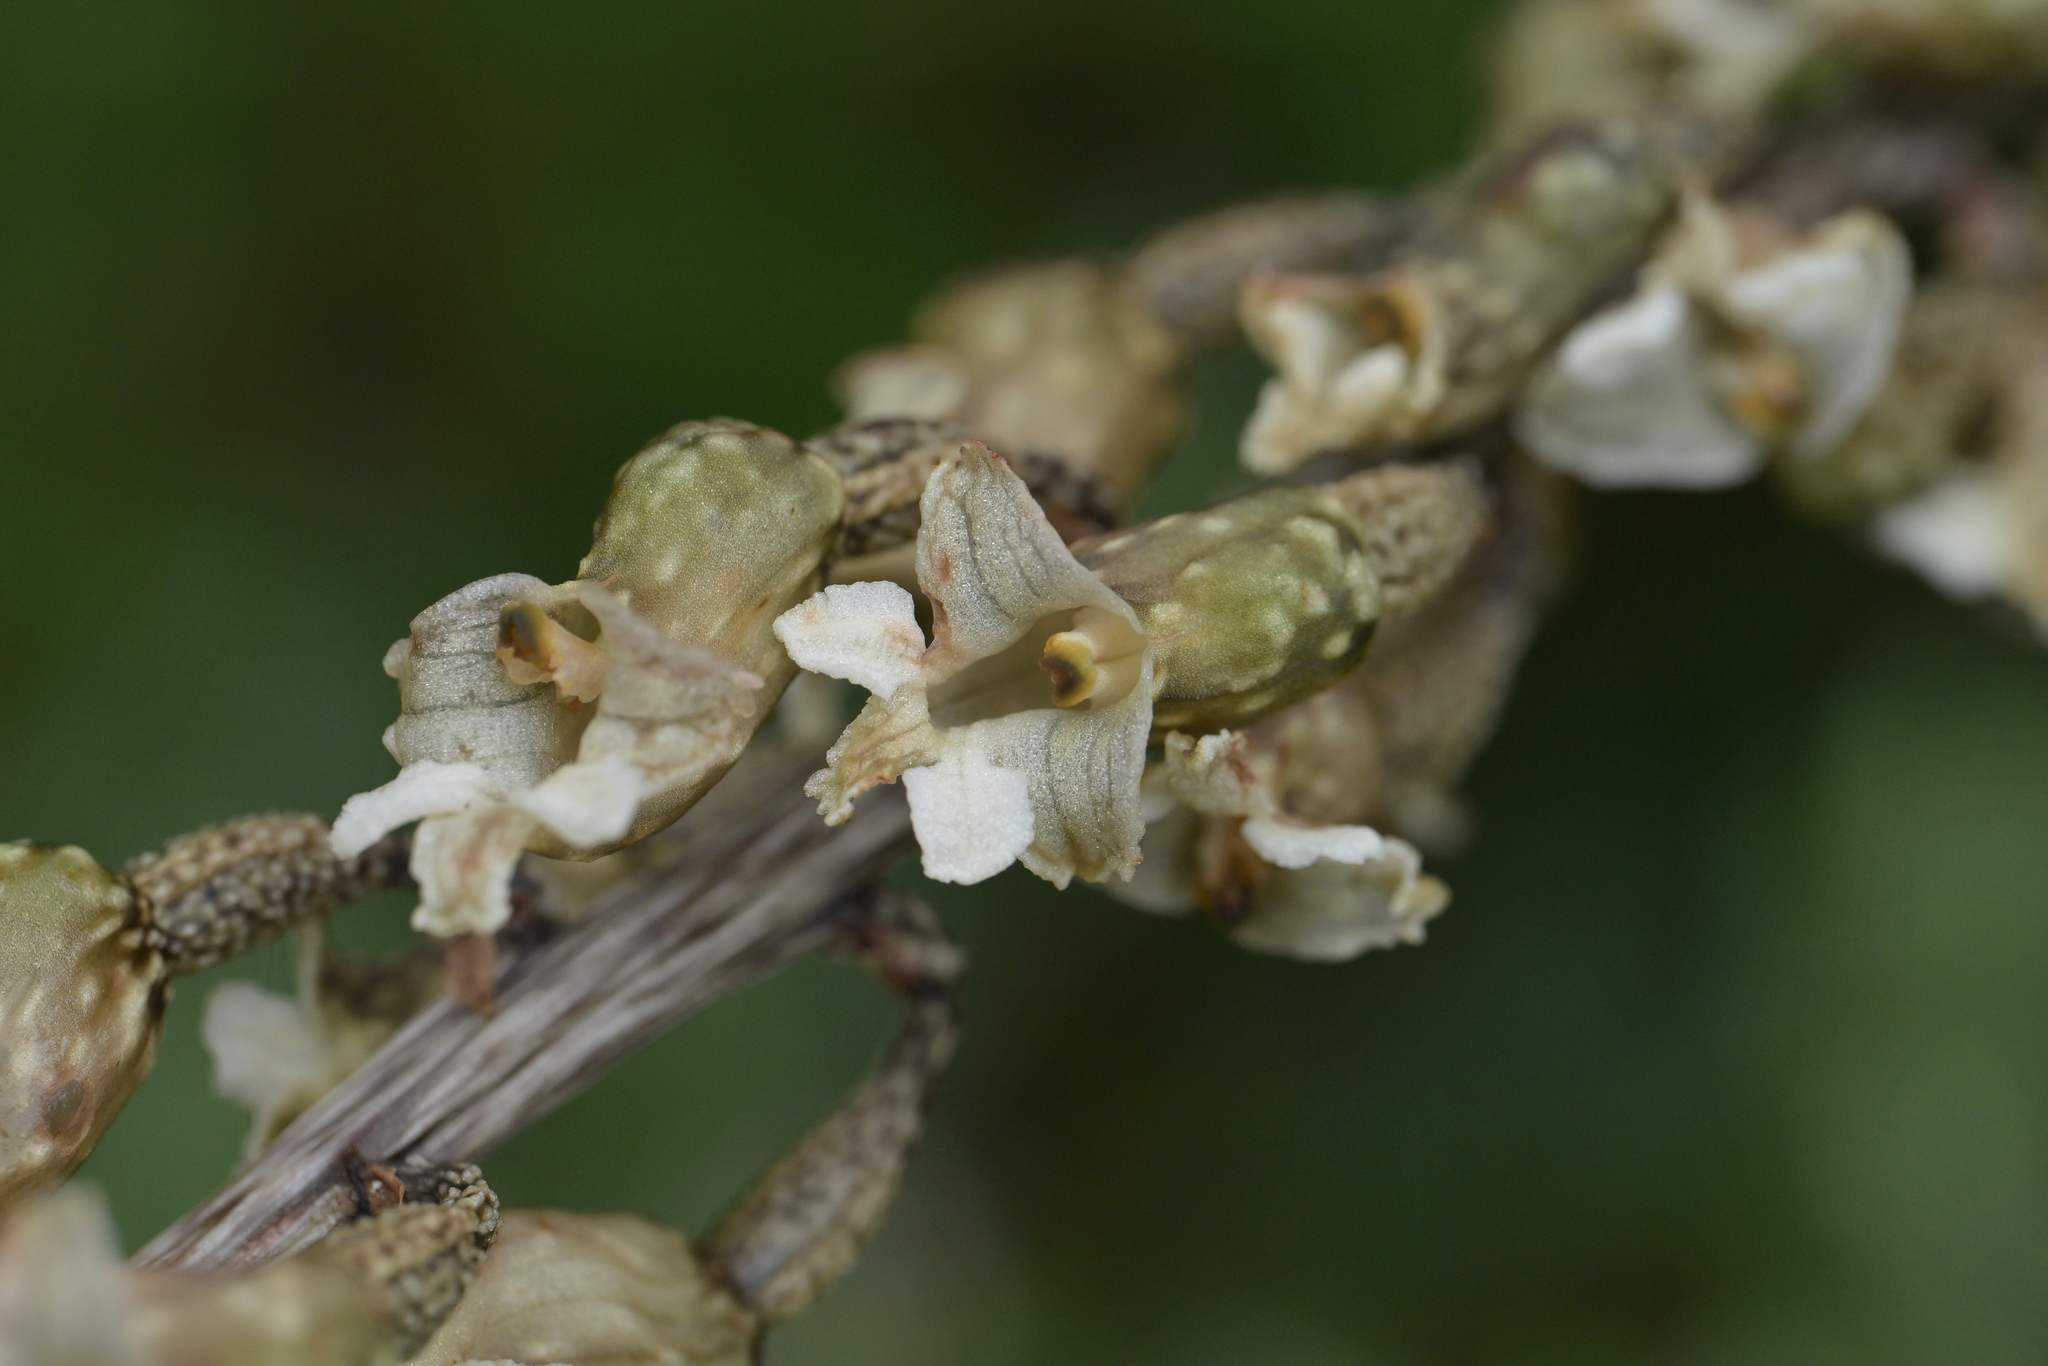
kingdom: Plantae
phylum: Tracheophyta
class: Liliopsida
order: Asparagales
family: Orchidaceae
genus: Gastrodia
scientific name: Gastrodia cunninghamii
